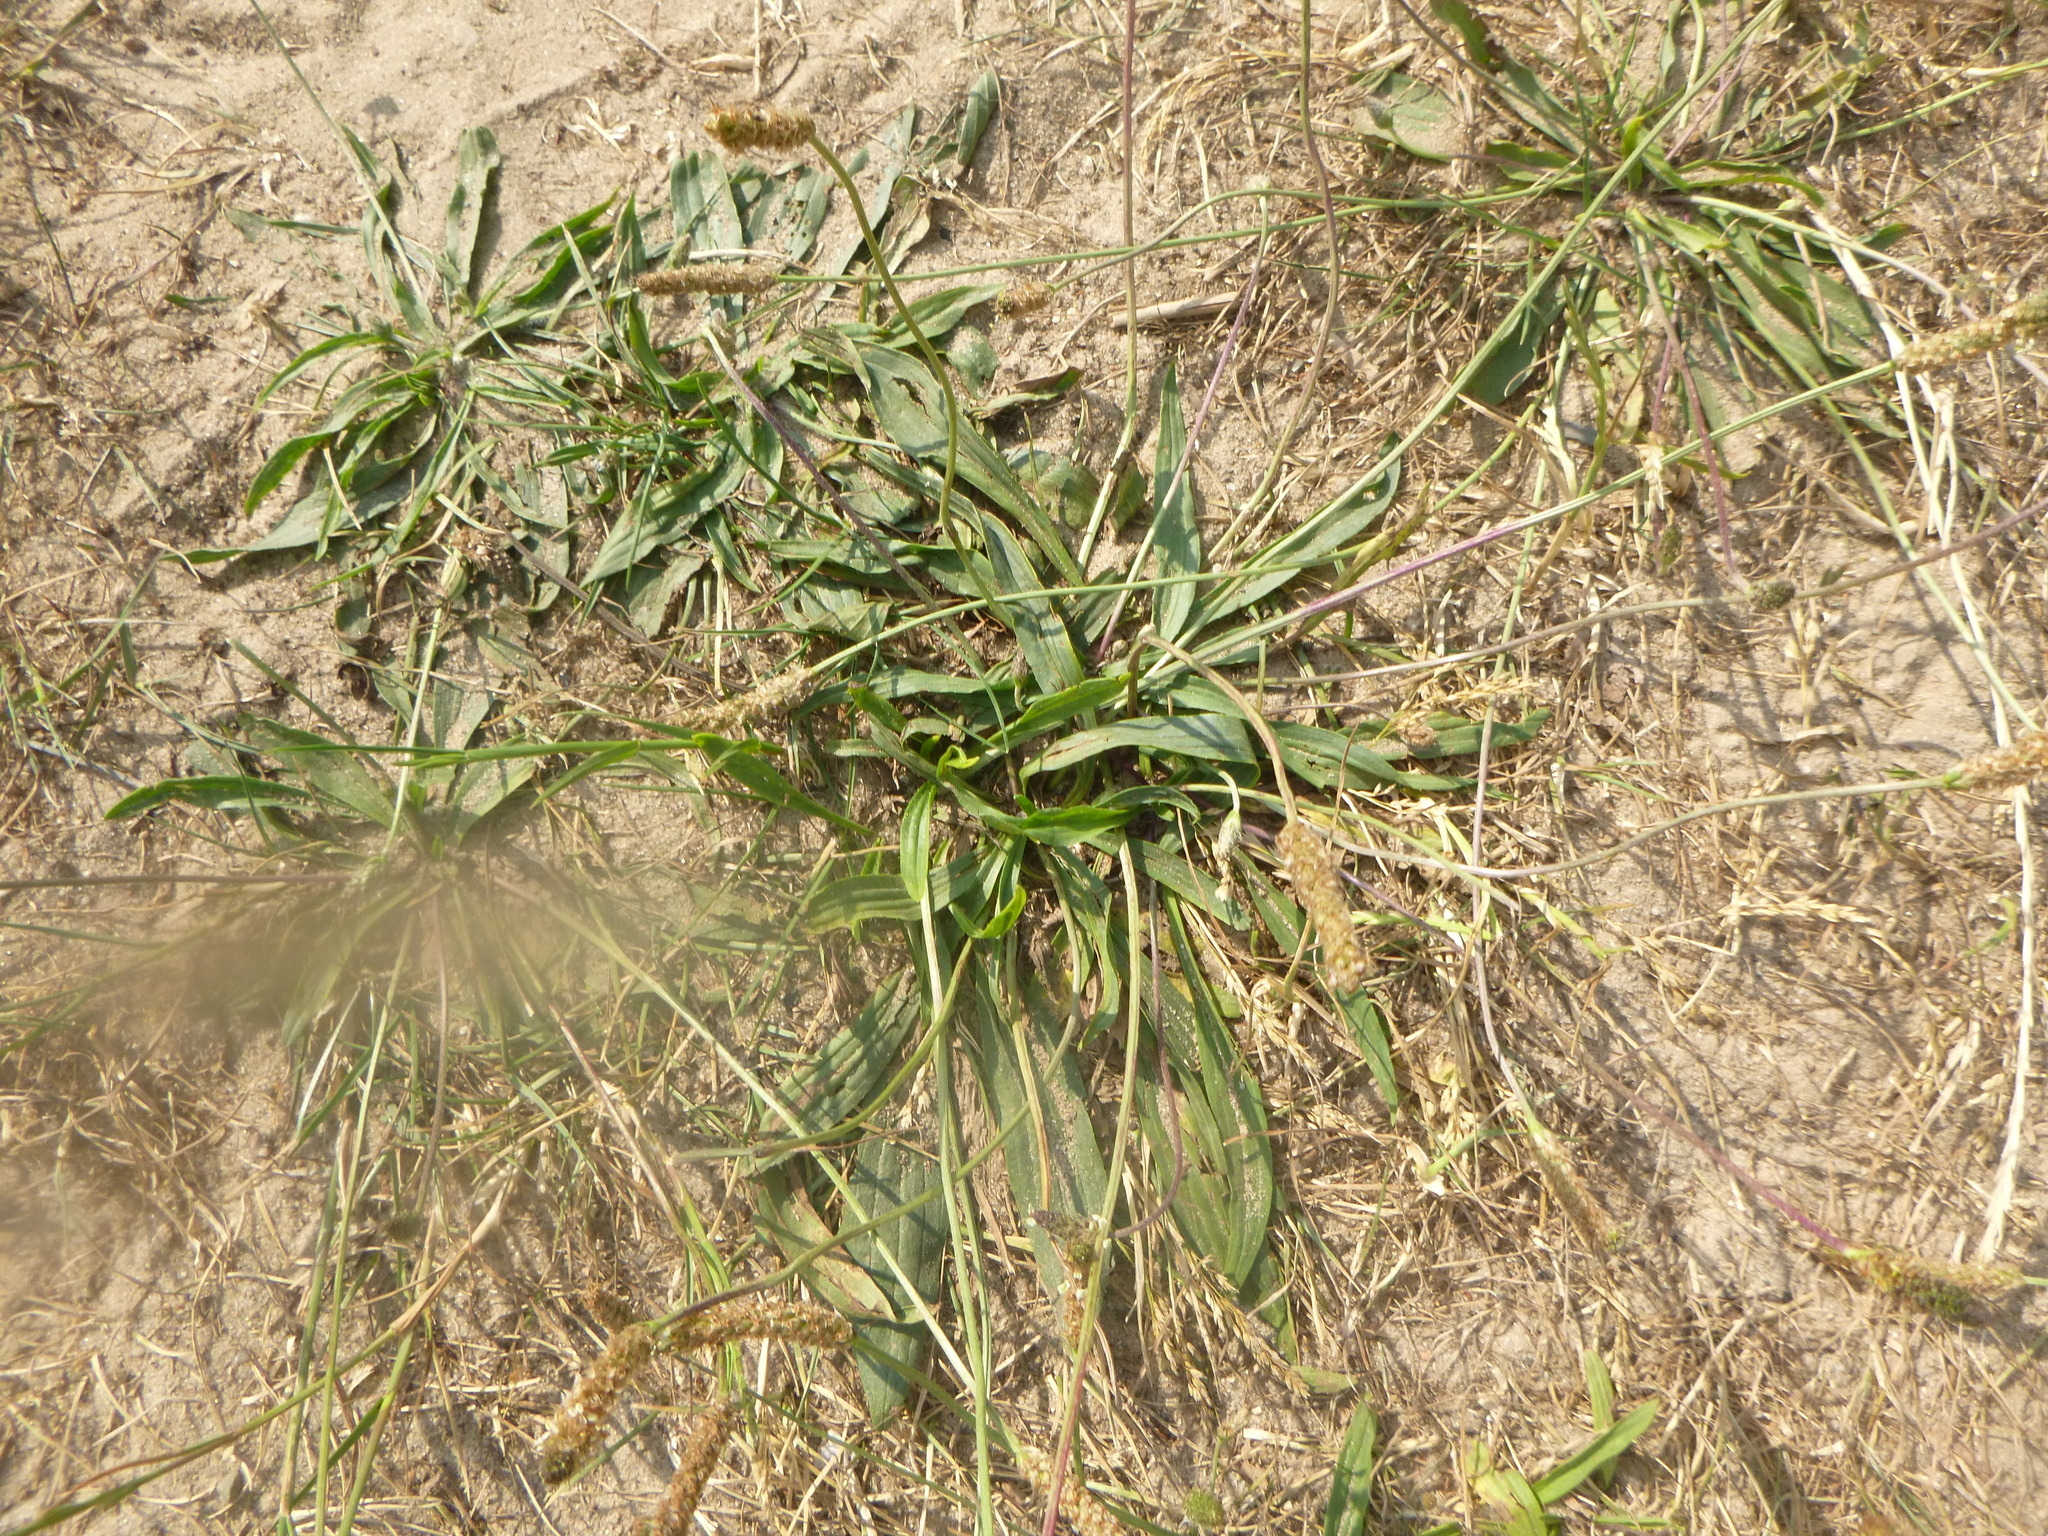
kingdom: Plantae
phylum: Tracheophyta
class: Magnoliopsida
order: Lamiales
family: Plantaginaceae
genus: Plantago
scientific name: Plantago lanceolata
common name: Ribwort plantain
